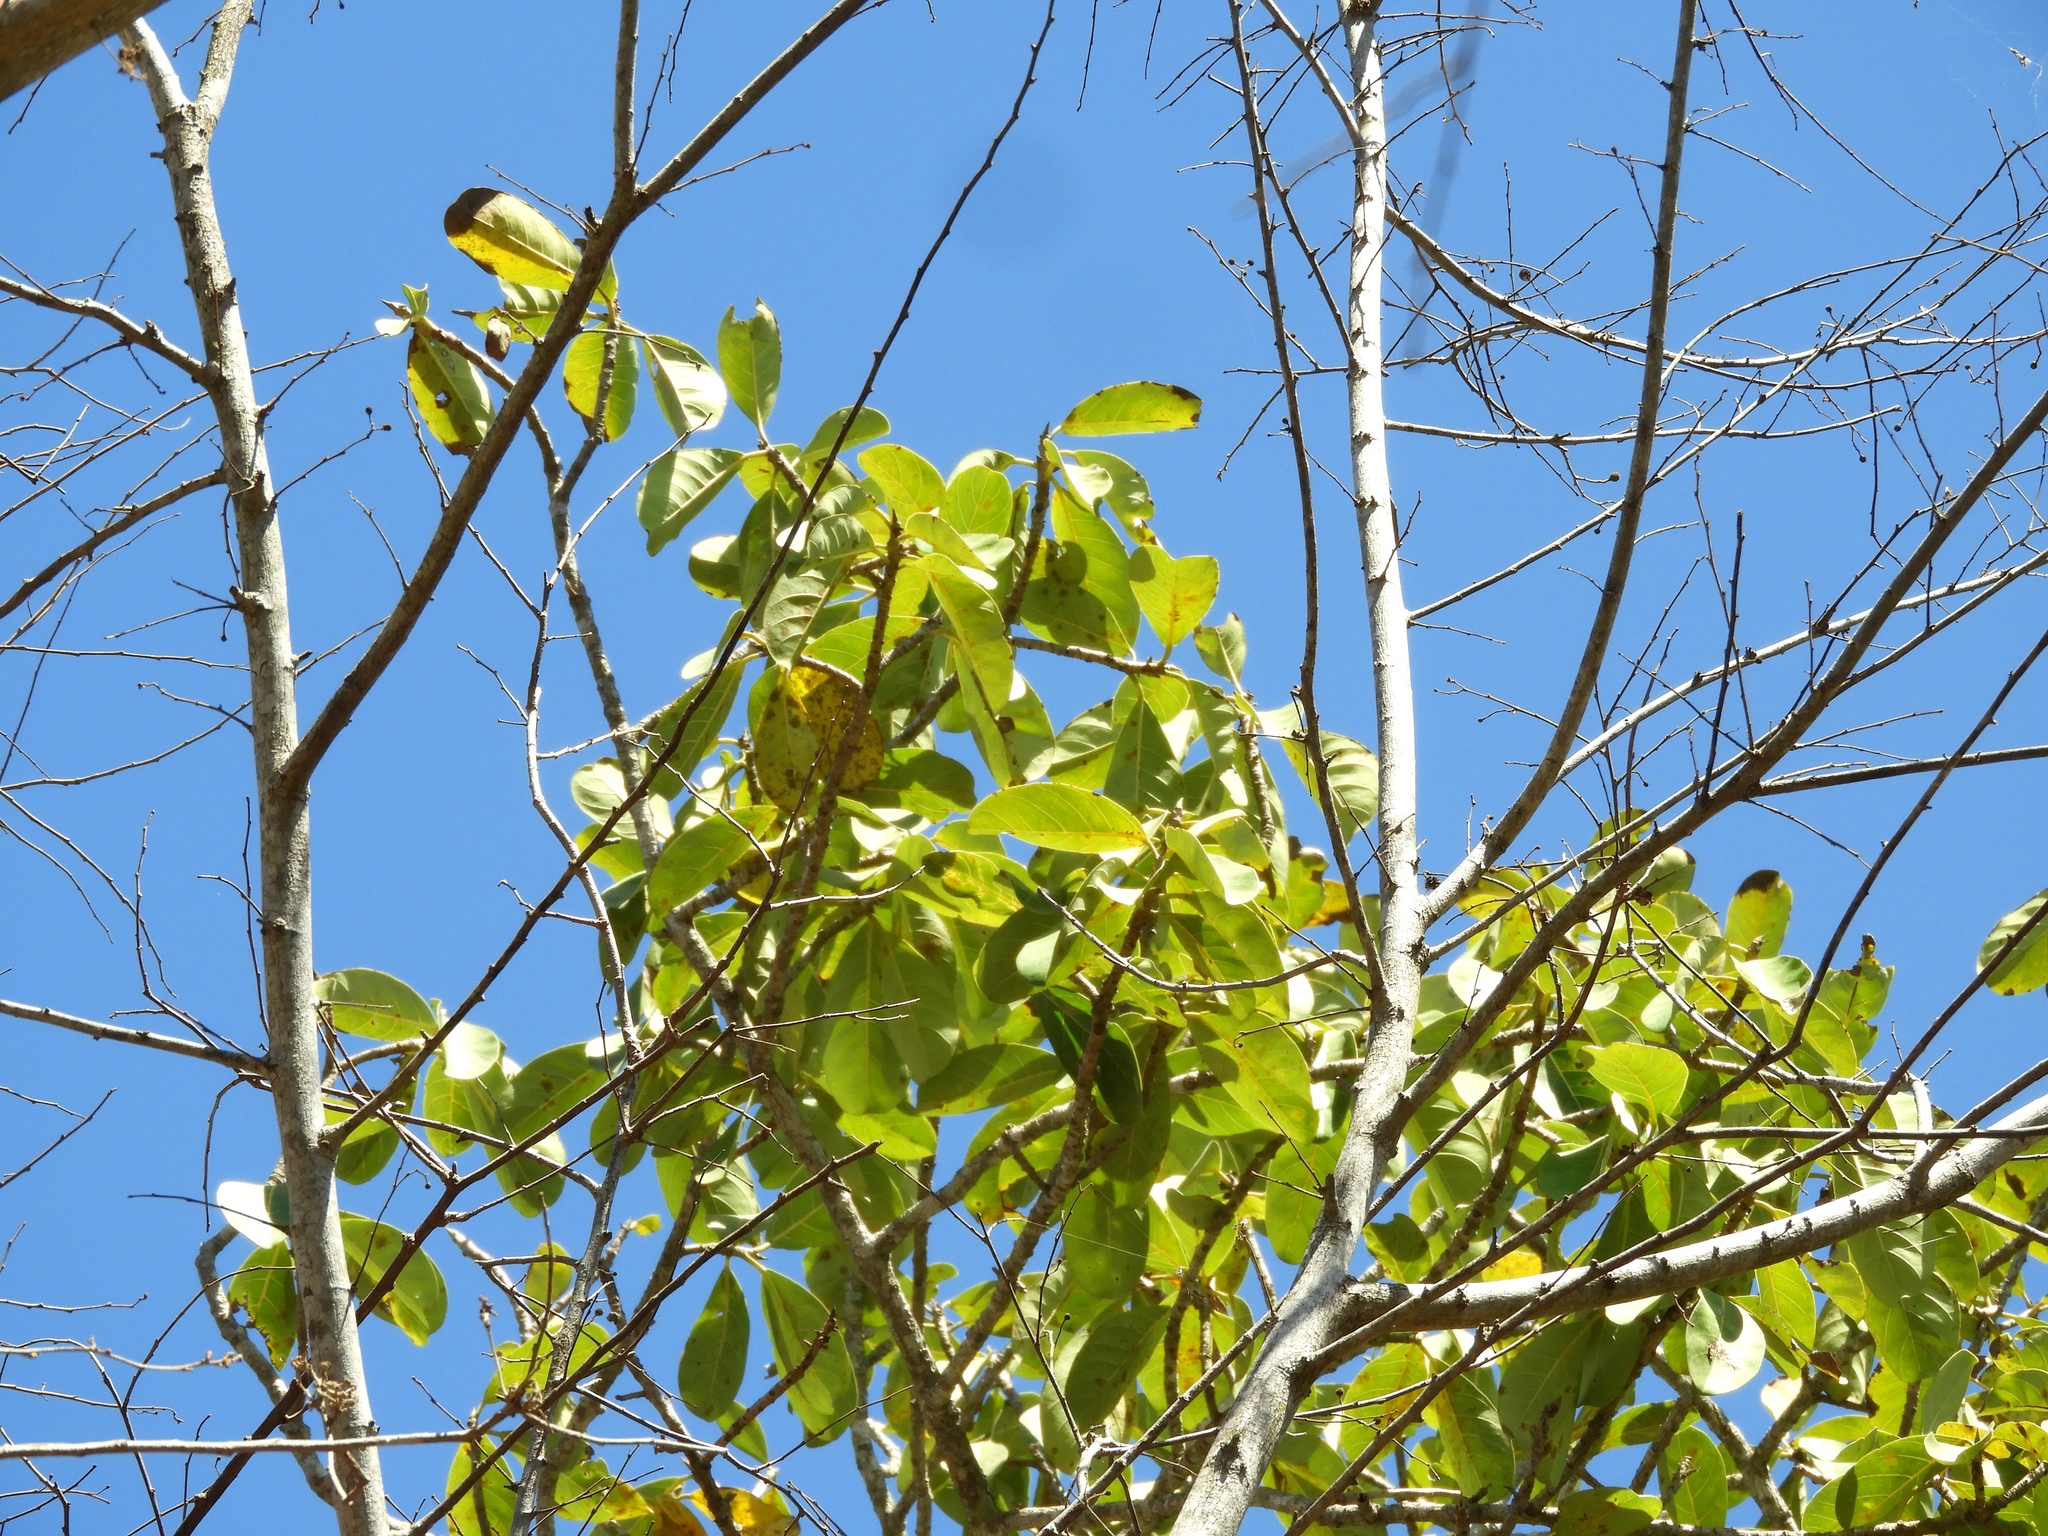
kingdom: Plantae
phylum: Tracheophyta
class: Magnoliopsida
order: Rosales
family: Moraceae
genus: Ficus
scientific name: Ficus cotinifolia
